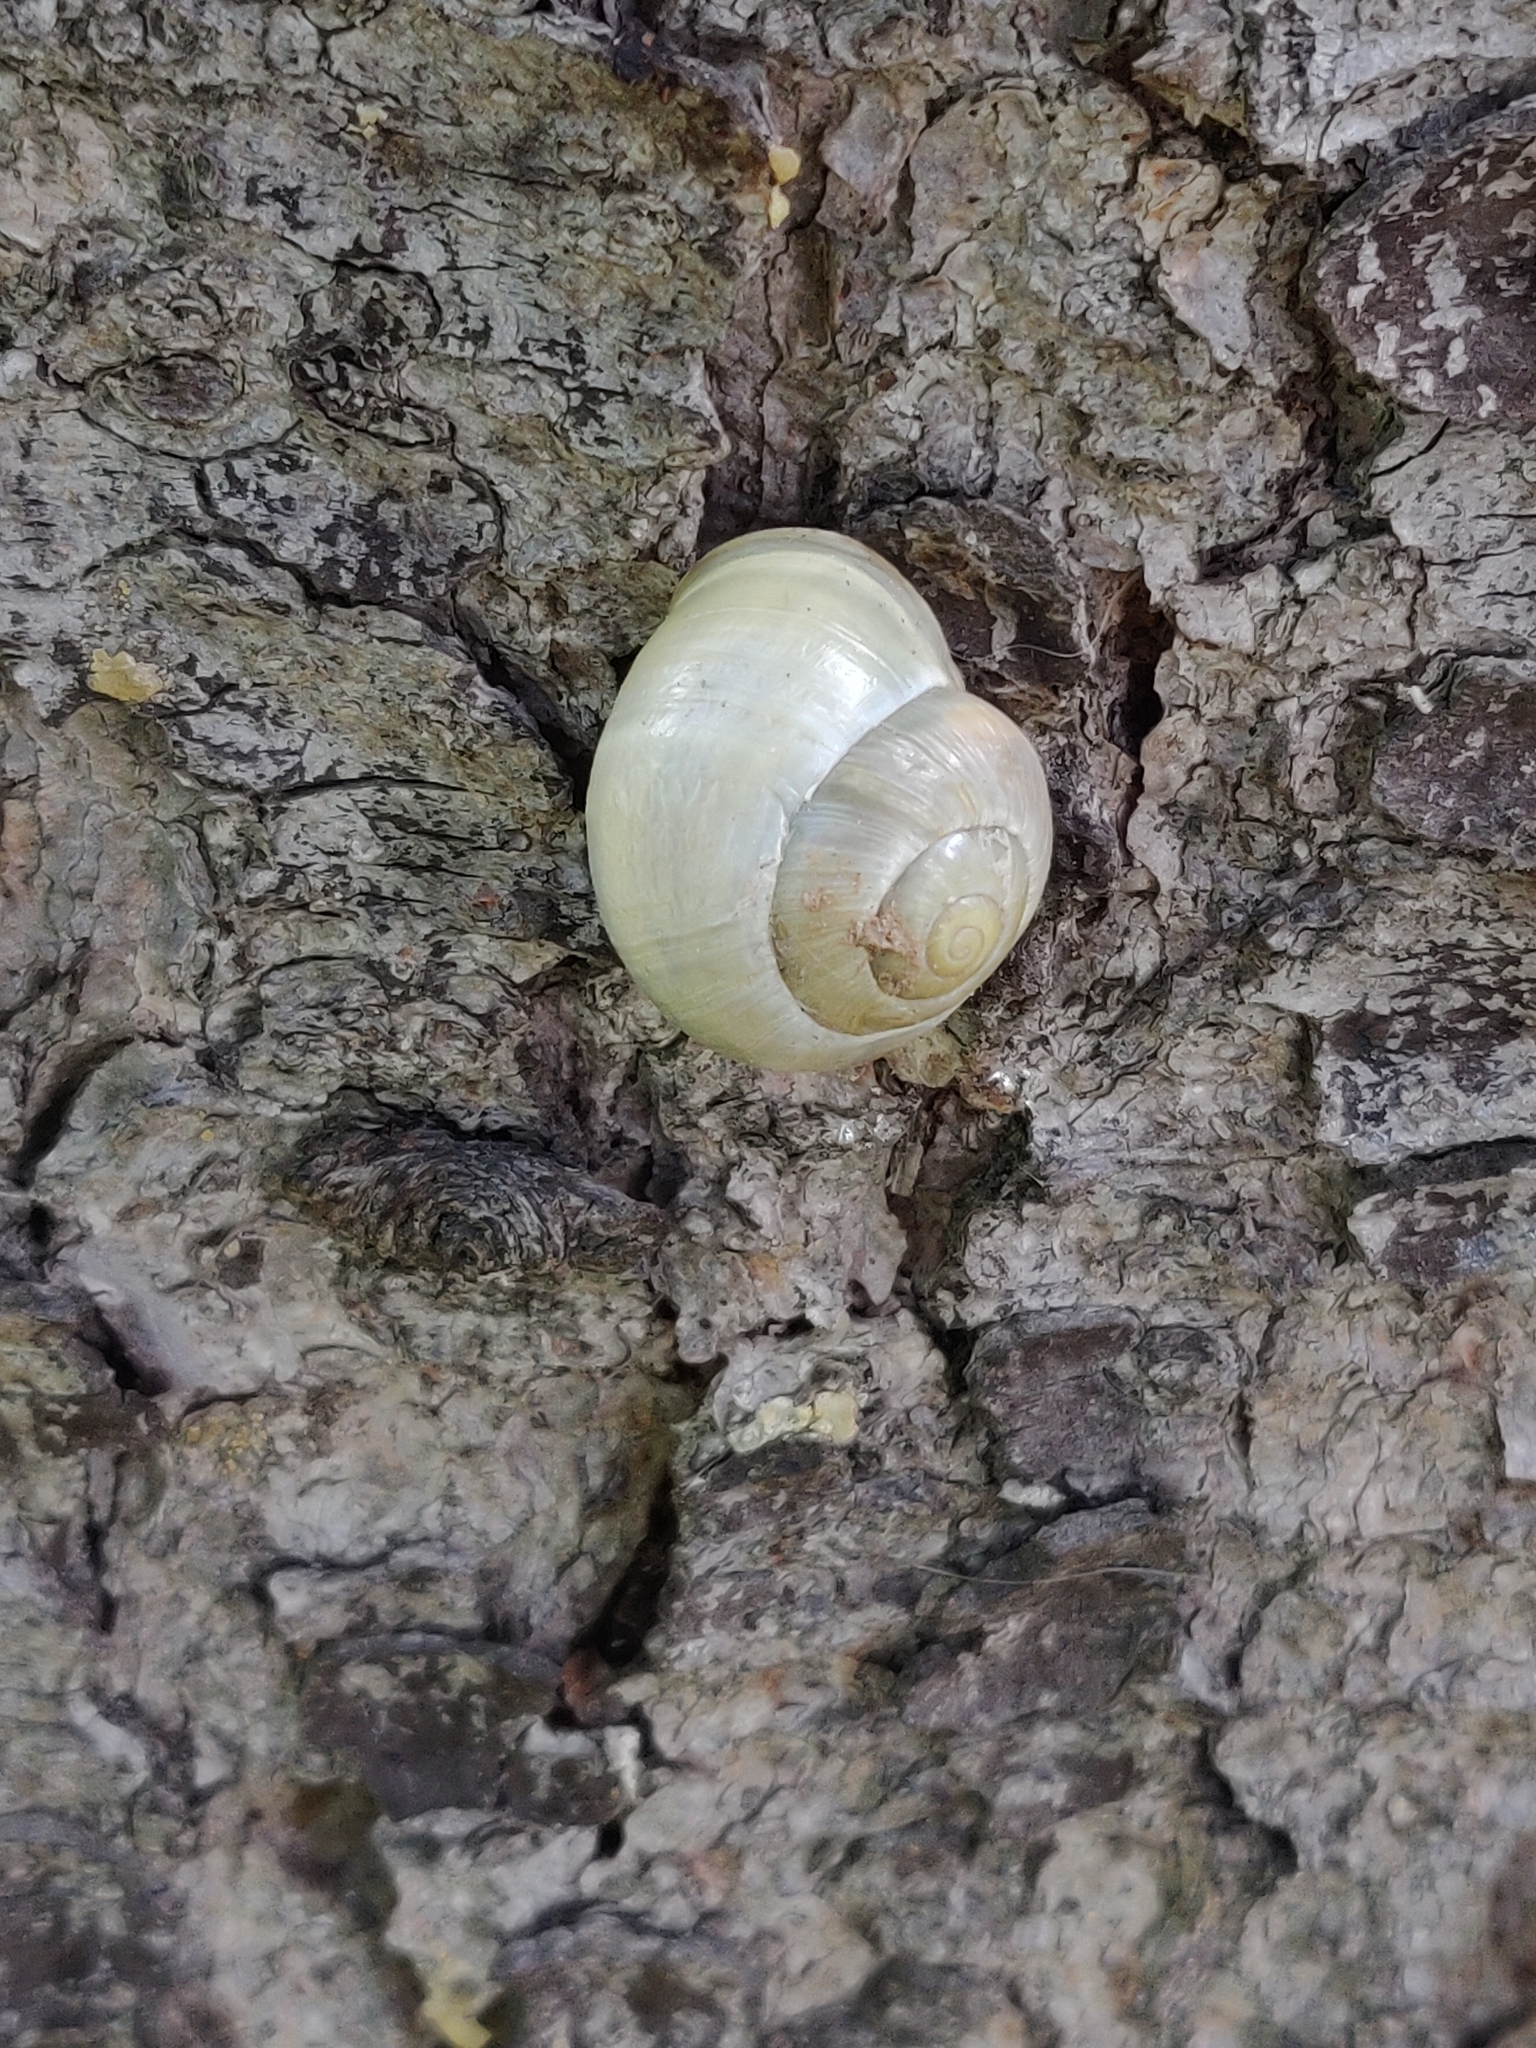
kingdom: Animalia
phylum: Mollusca
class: Gastropoda
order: Stylommatophora
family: Helicidae
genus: Cepaea
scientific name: Cepaea hortensis
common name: White-lip gardensnail
